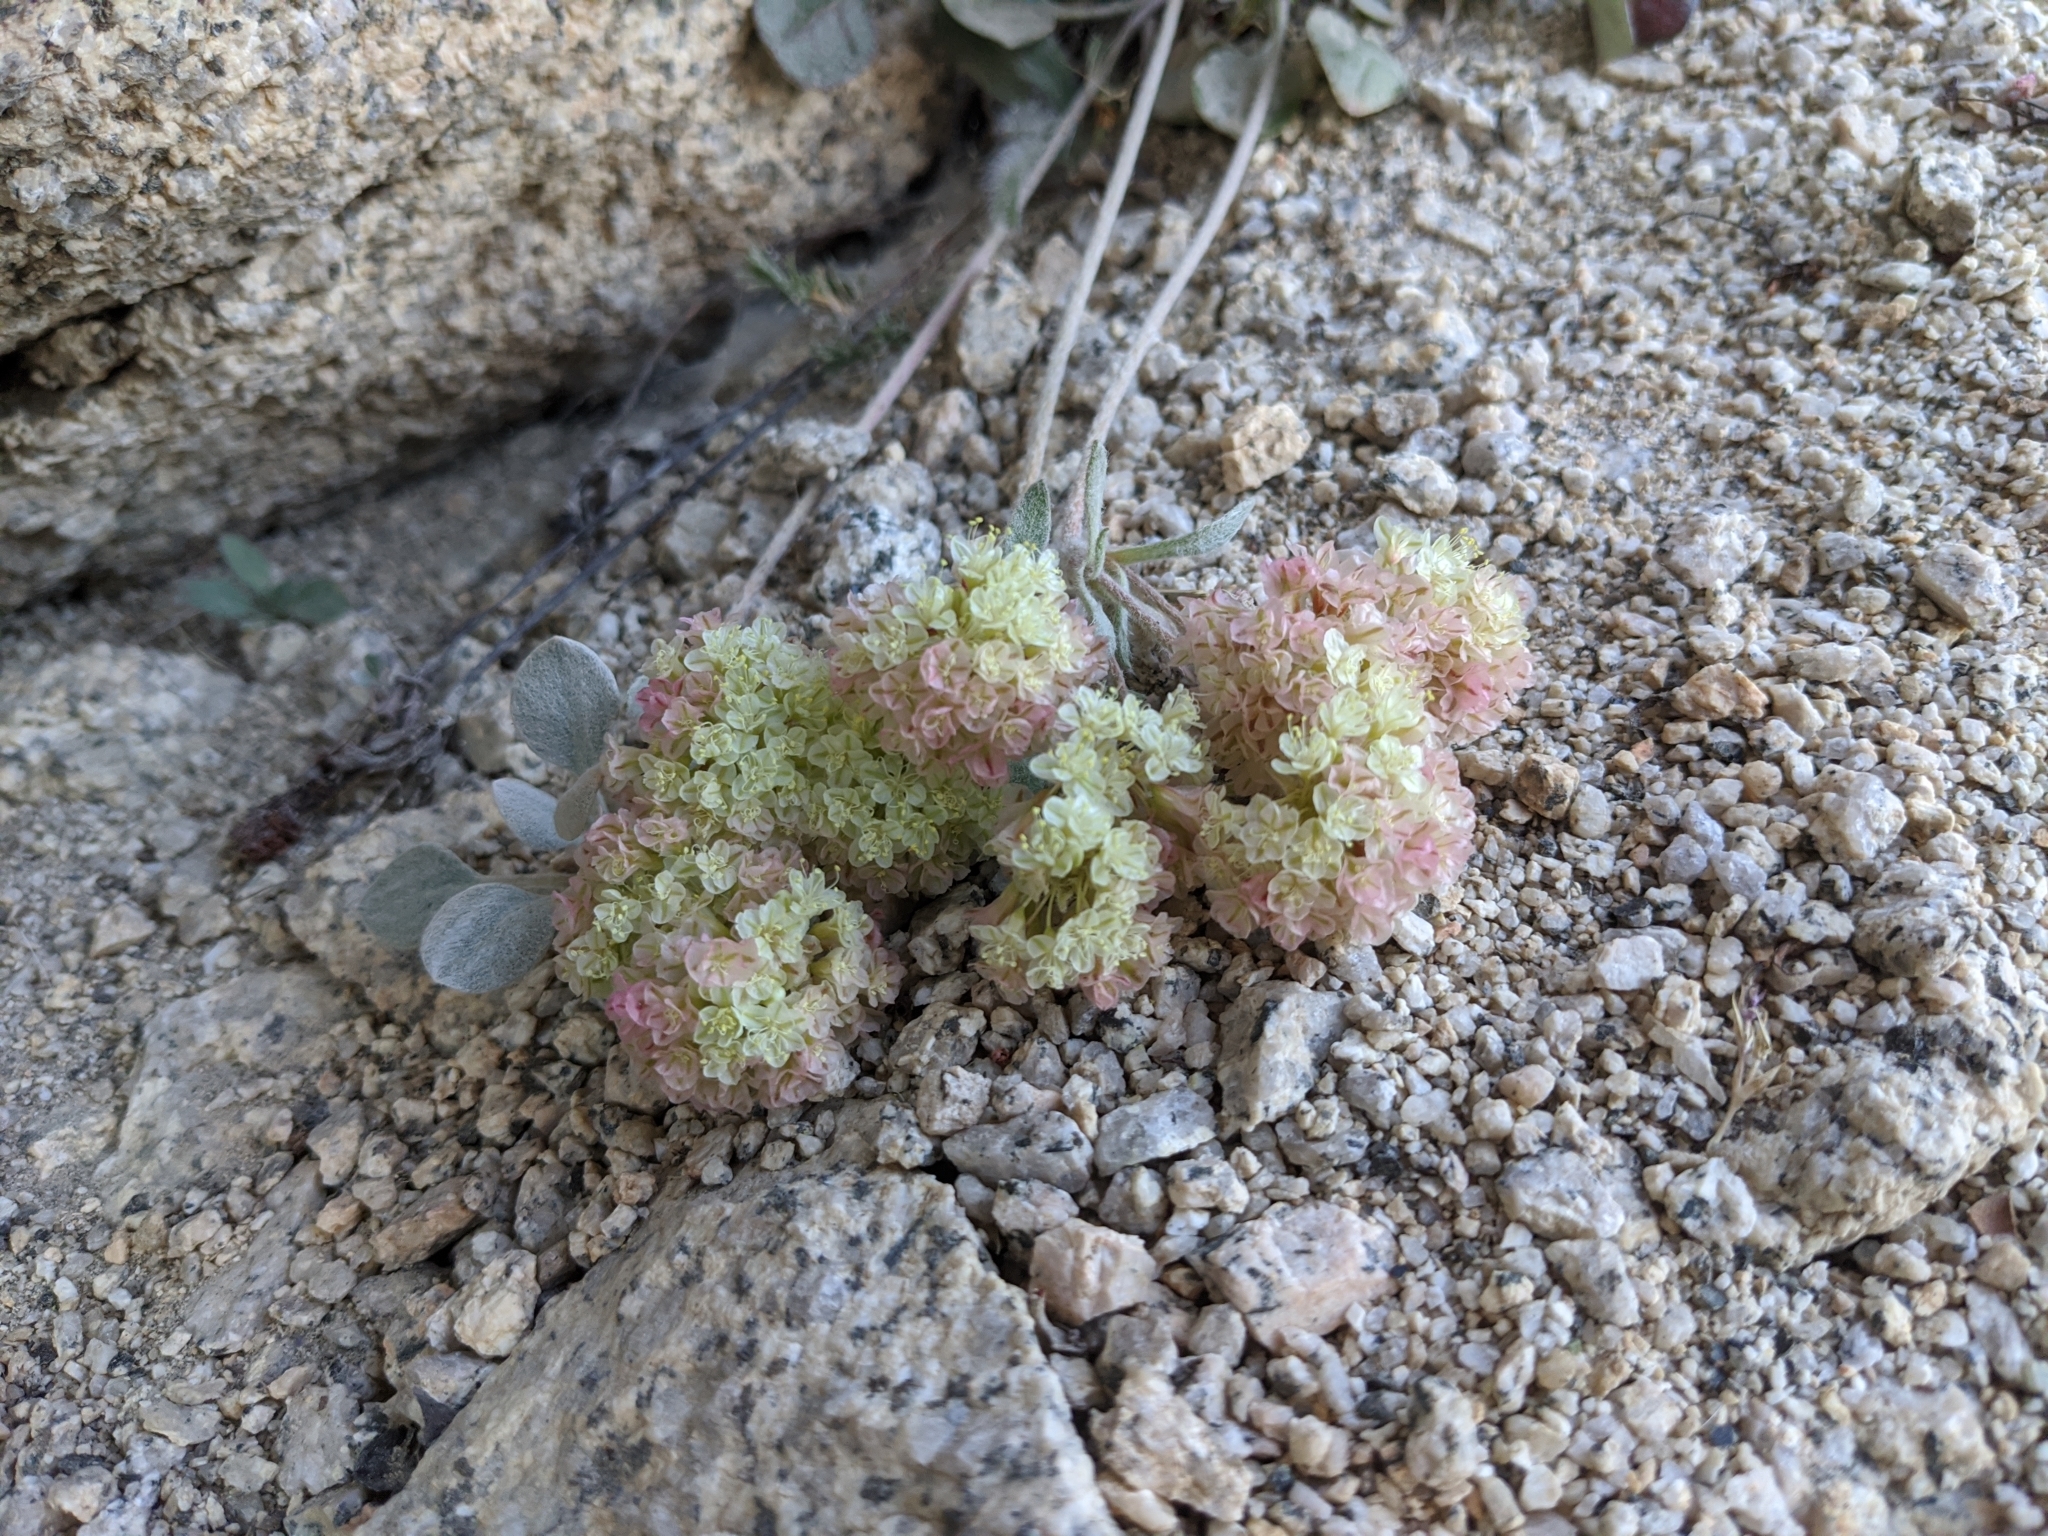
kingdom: Plantae
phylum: Tracheophyta
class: Magnoliopsida
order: Caryophyllales
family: Polygonaceae
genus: Eriogonum
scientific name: Eriogonum lobbii
